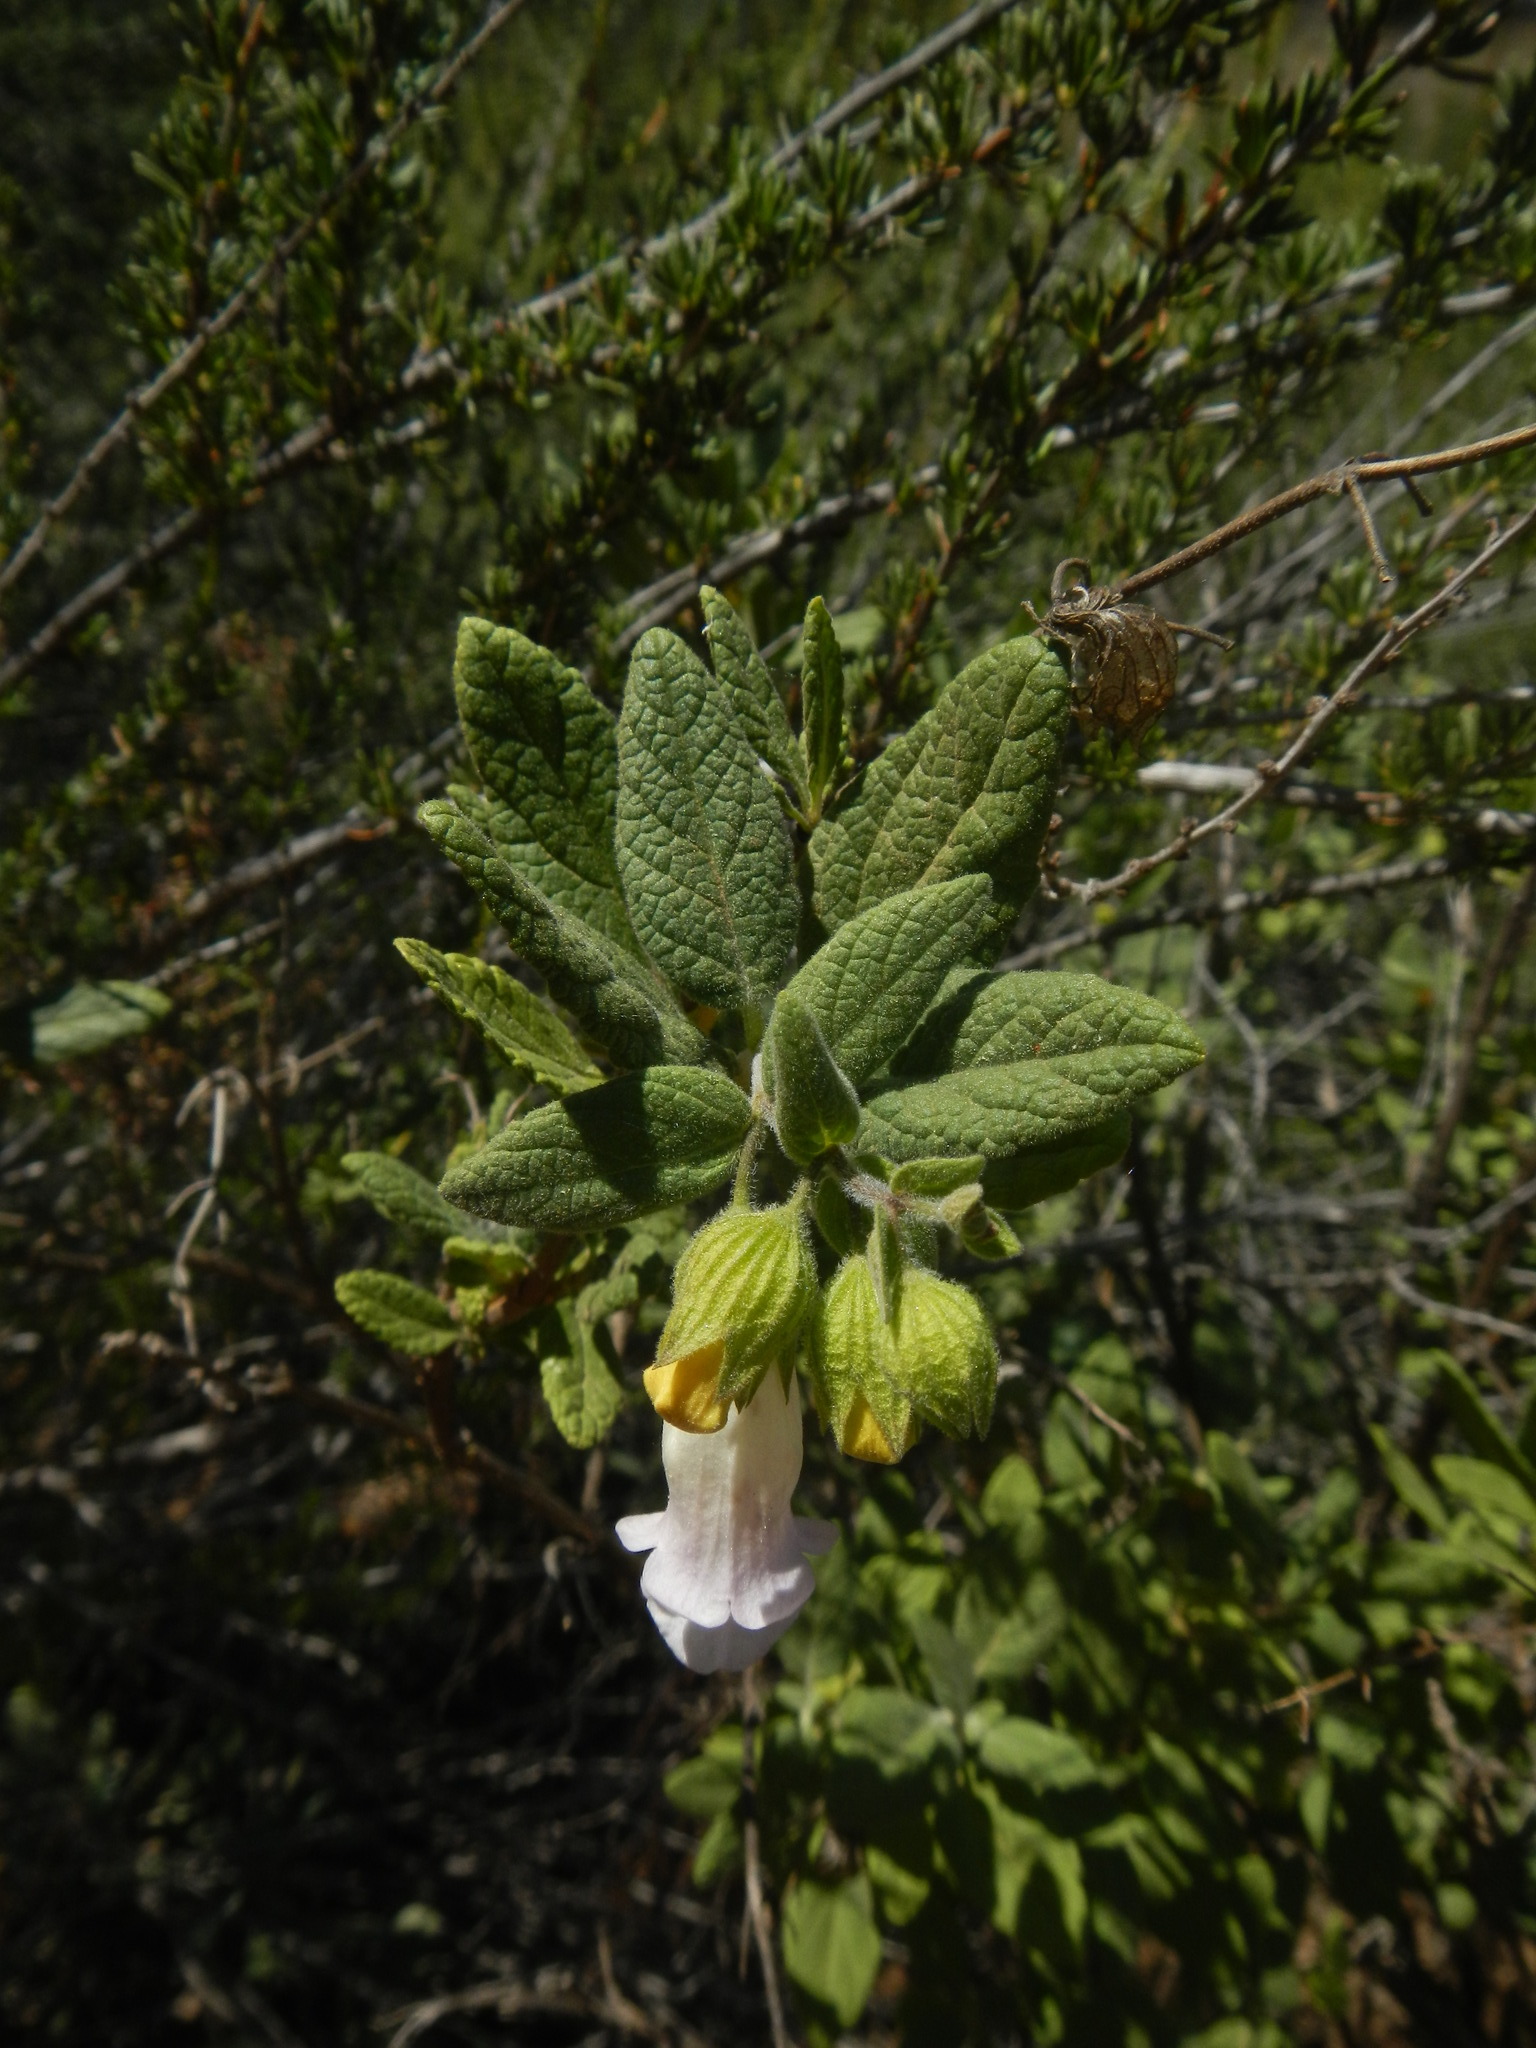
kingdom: Plantae
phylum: Tracheophyta
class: Magnoliopsida
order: Lamiales
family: Lamiaceae
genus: Lepechinia
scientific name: Lepechinia calycina
